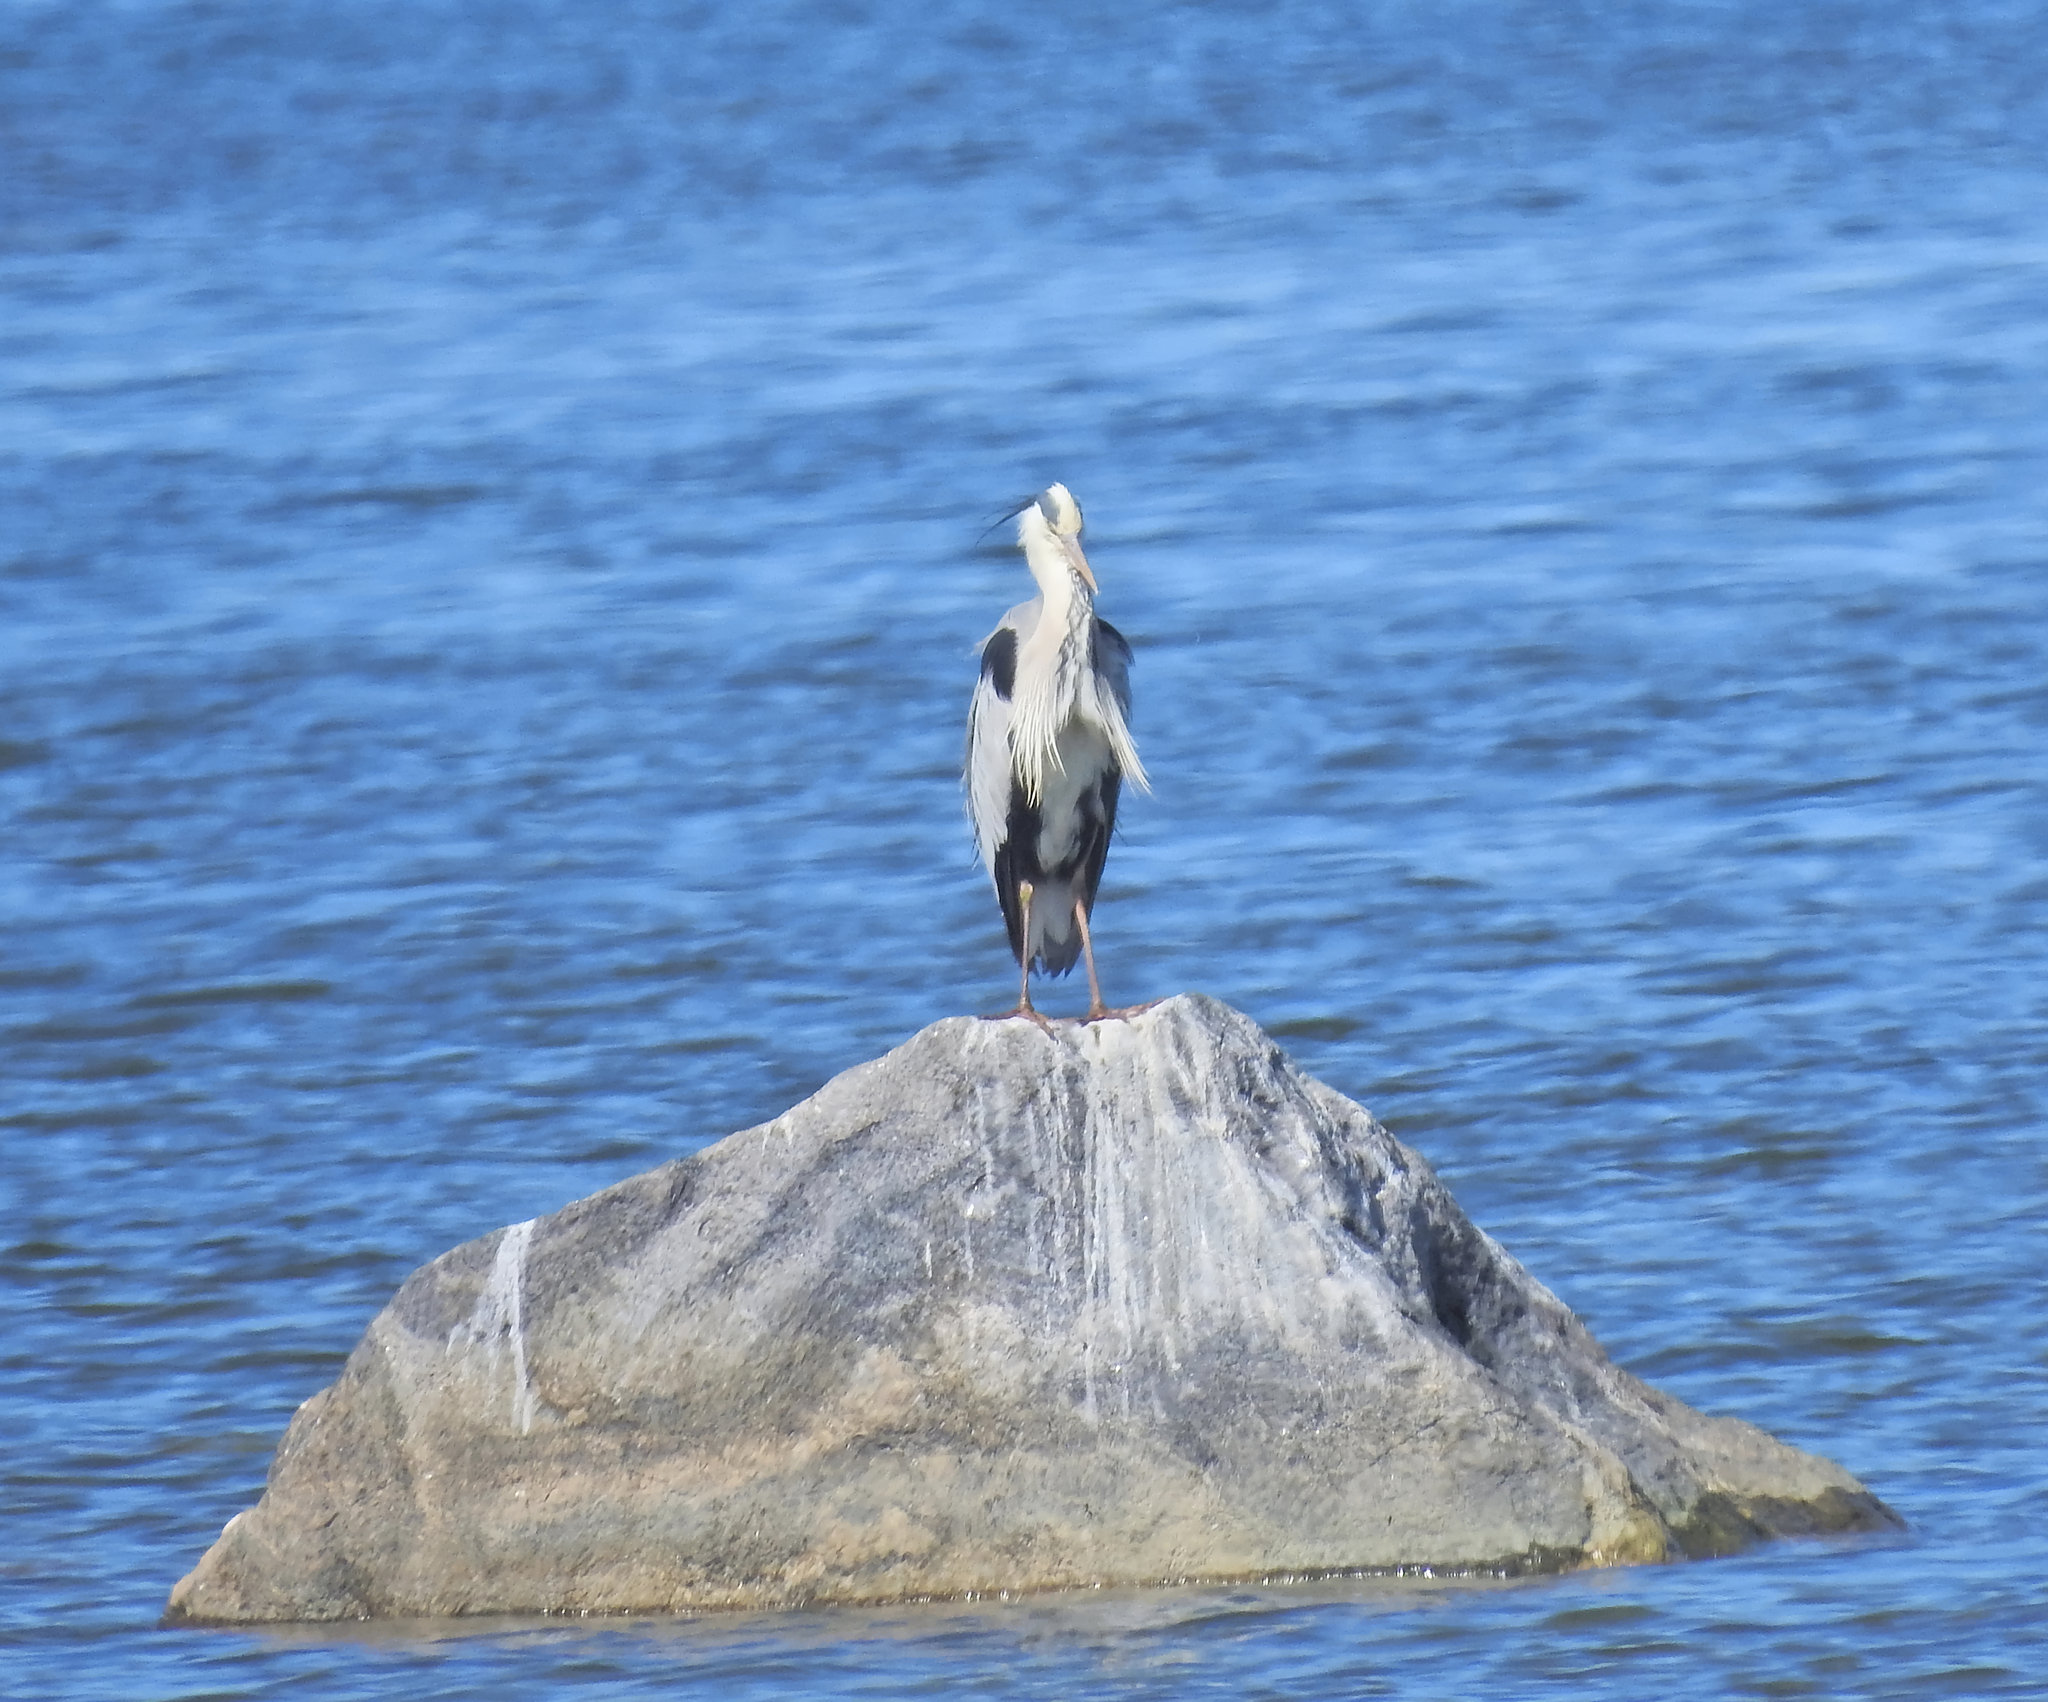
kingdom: Animalia
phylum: Chordata
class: Aves
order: Pelecaniformes
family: Ardeidae
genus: Ardea
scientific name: Ardea cinerea
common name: Grey heron
